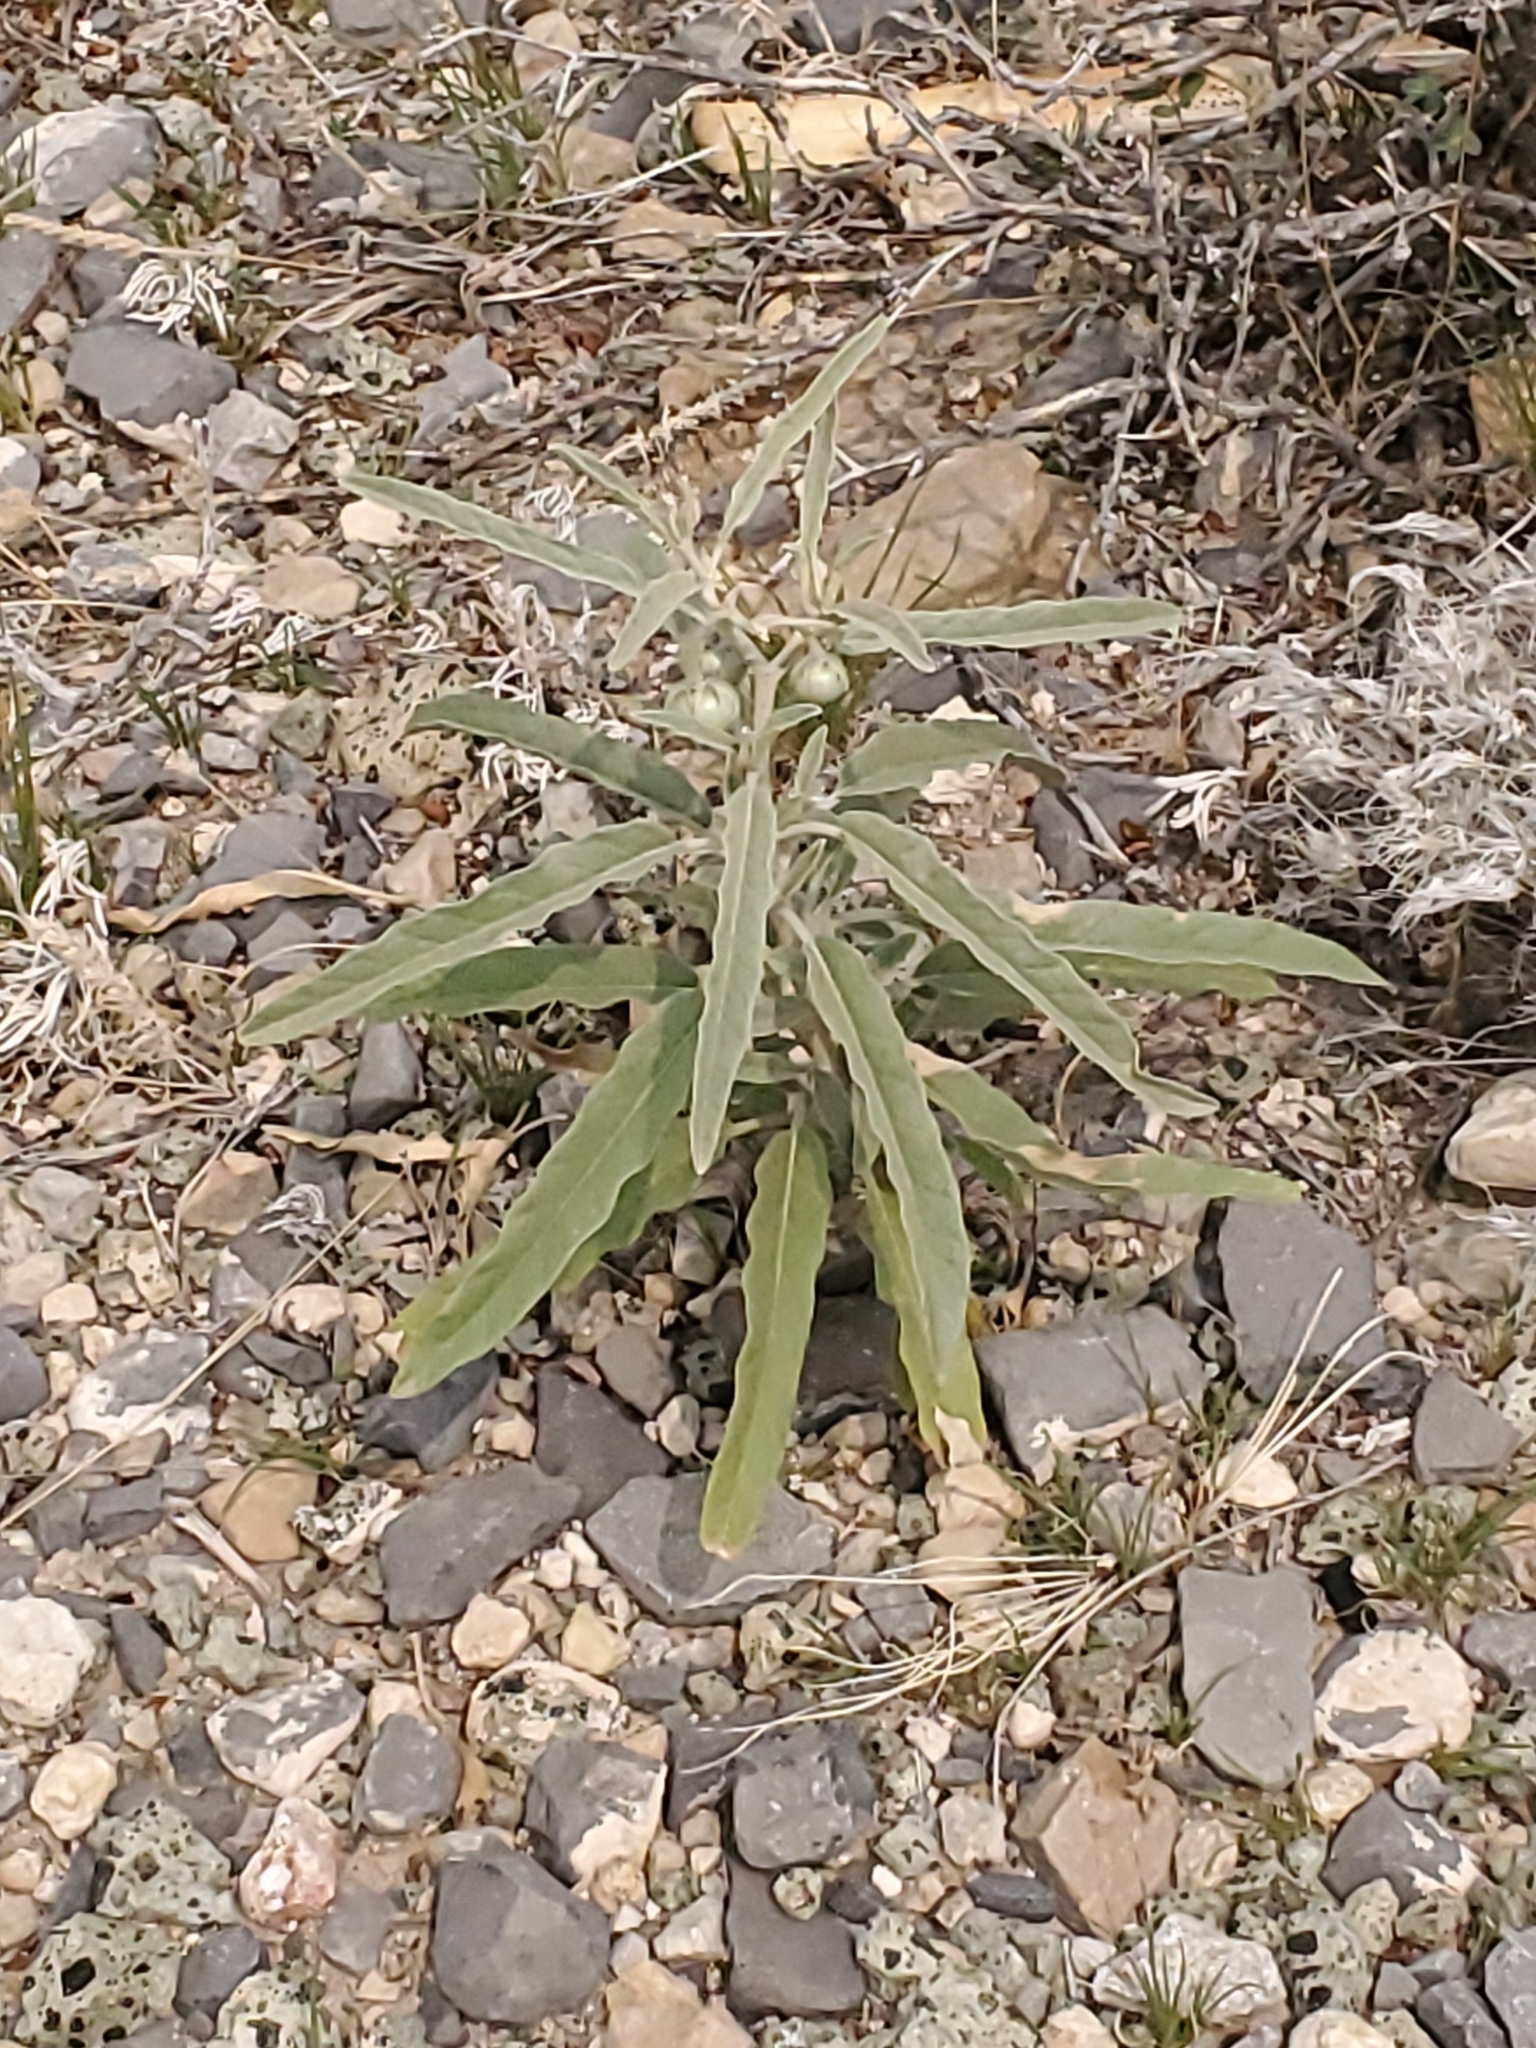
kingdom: Plantae
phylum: Tracheophyta
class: Magnoliopsida
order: Solanales
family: Solanaceae
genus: Solanum
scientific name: Solanum elaeagnifolium
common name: Silverleaf nightshade
